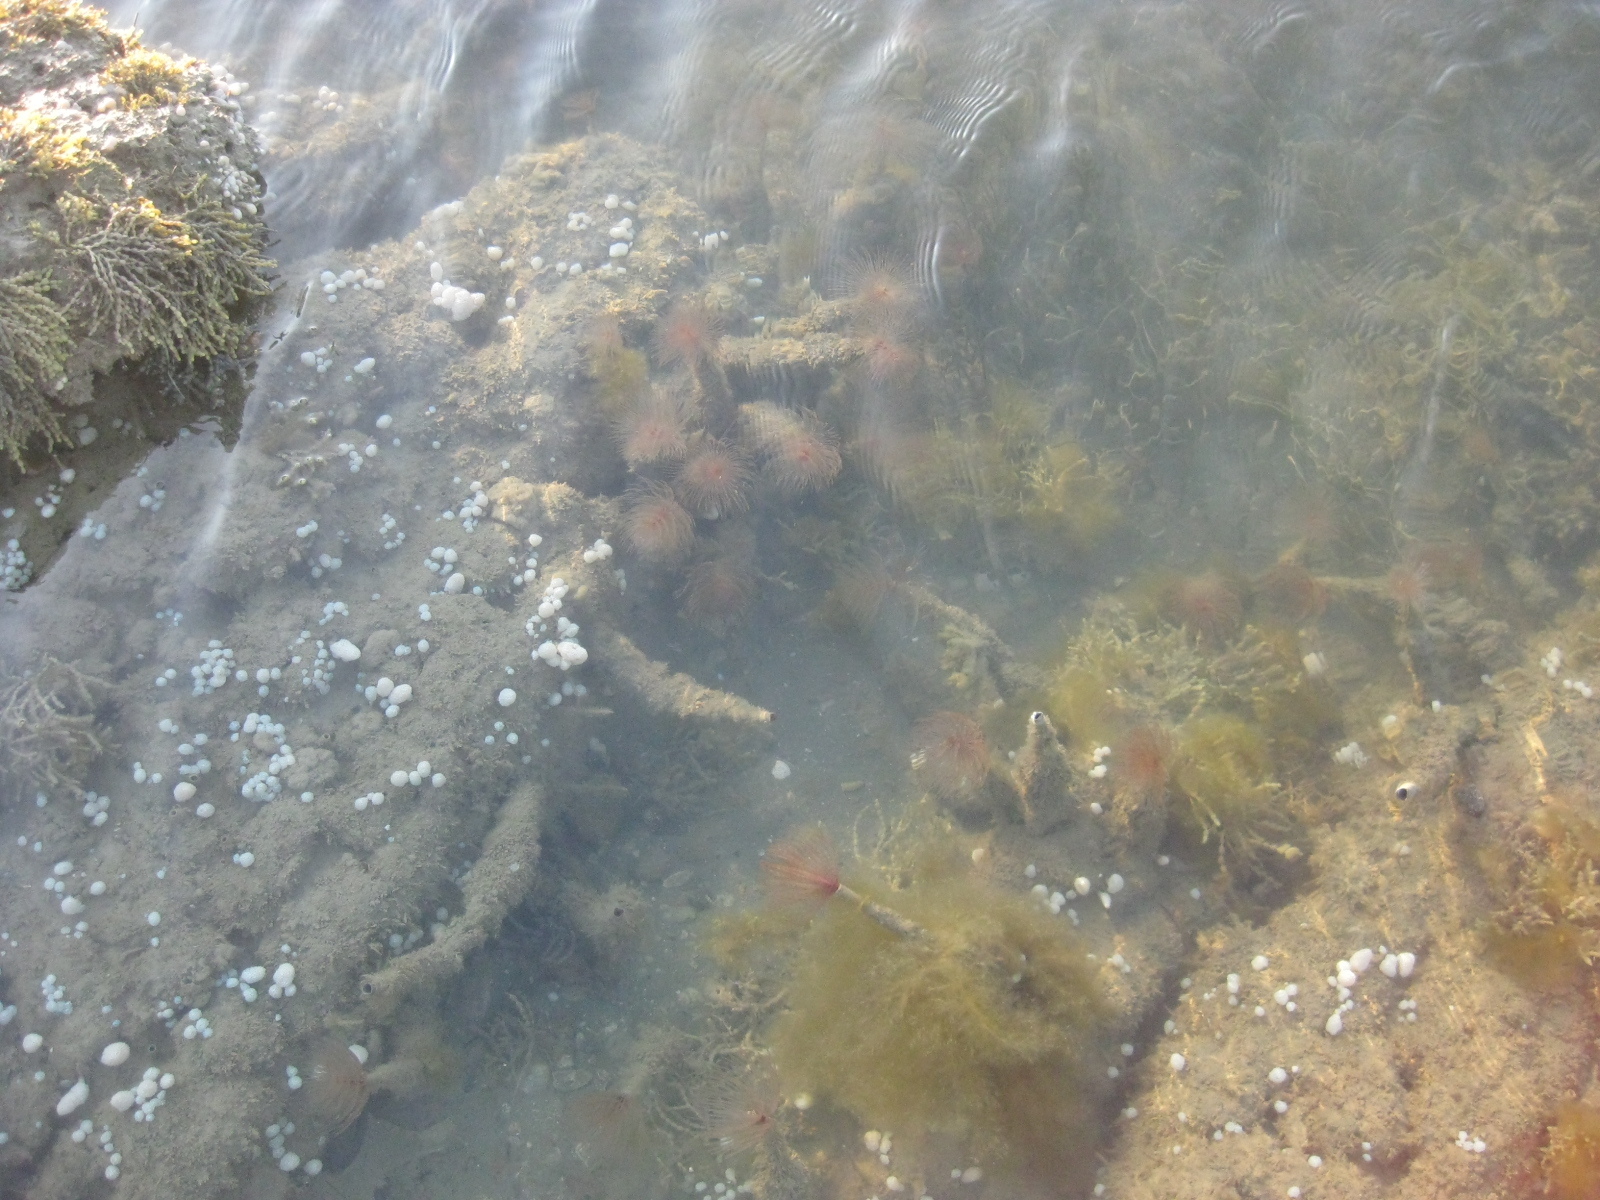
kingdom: Animalia
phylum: Annelida
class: Polychaeta
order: Sabellida
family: Sabellidae
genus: Sabella
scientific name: Sabella spallanzanii
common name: Feather duster worm
